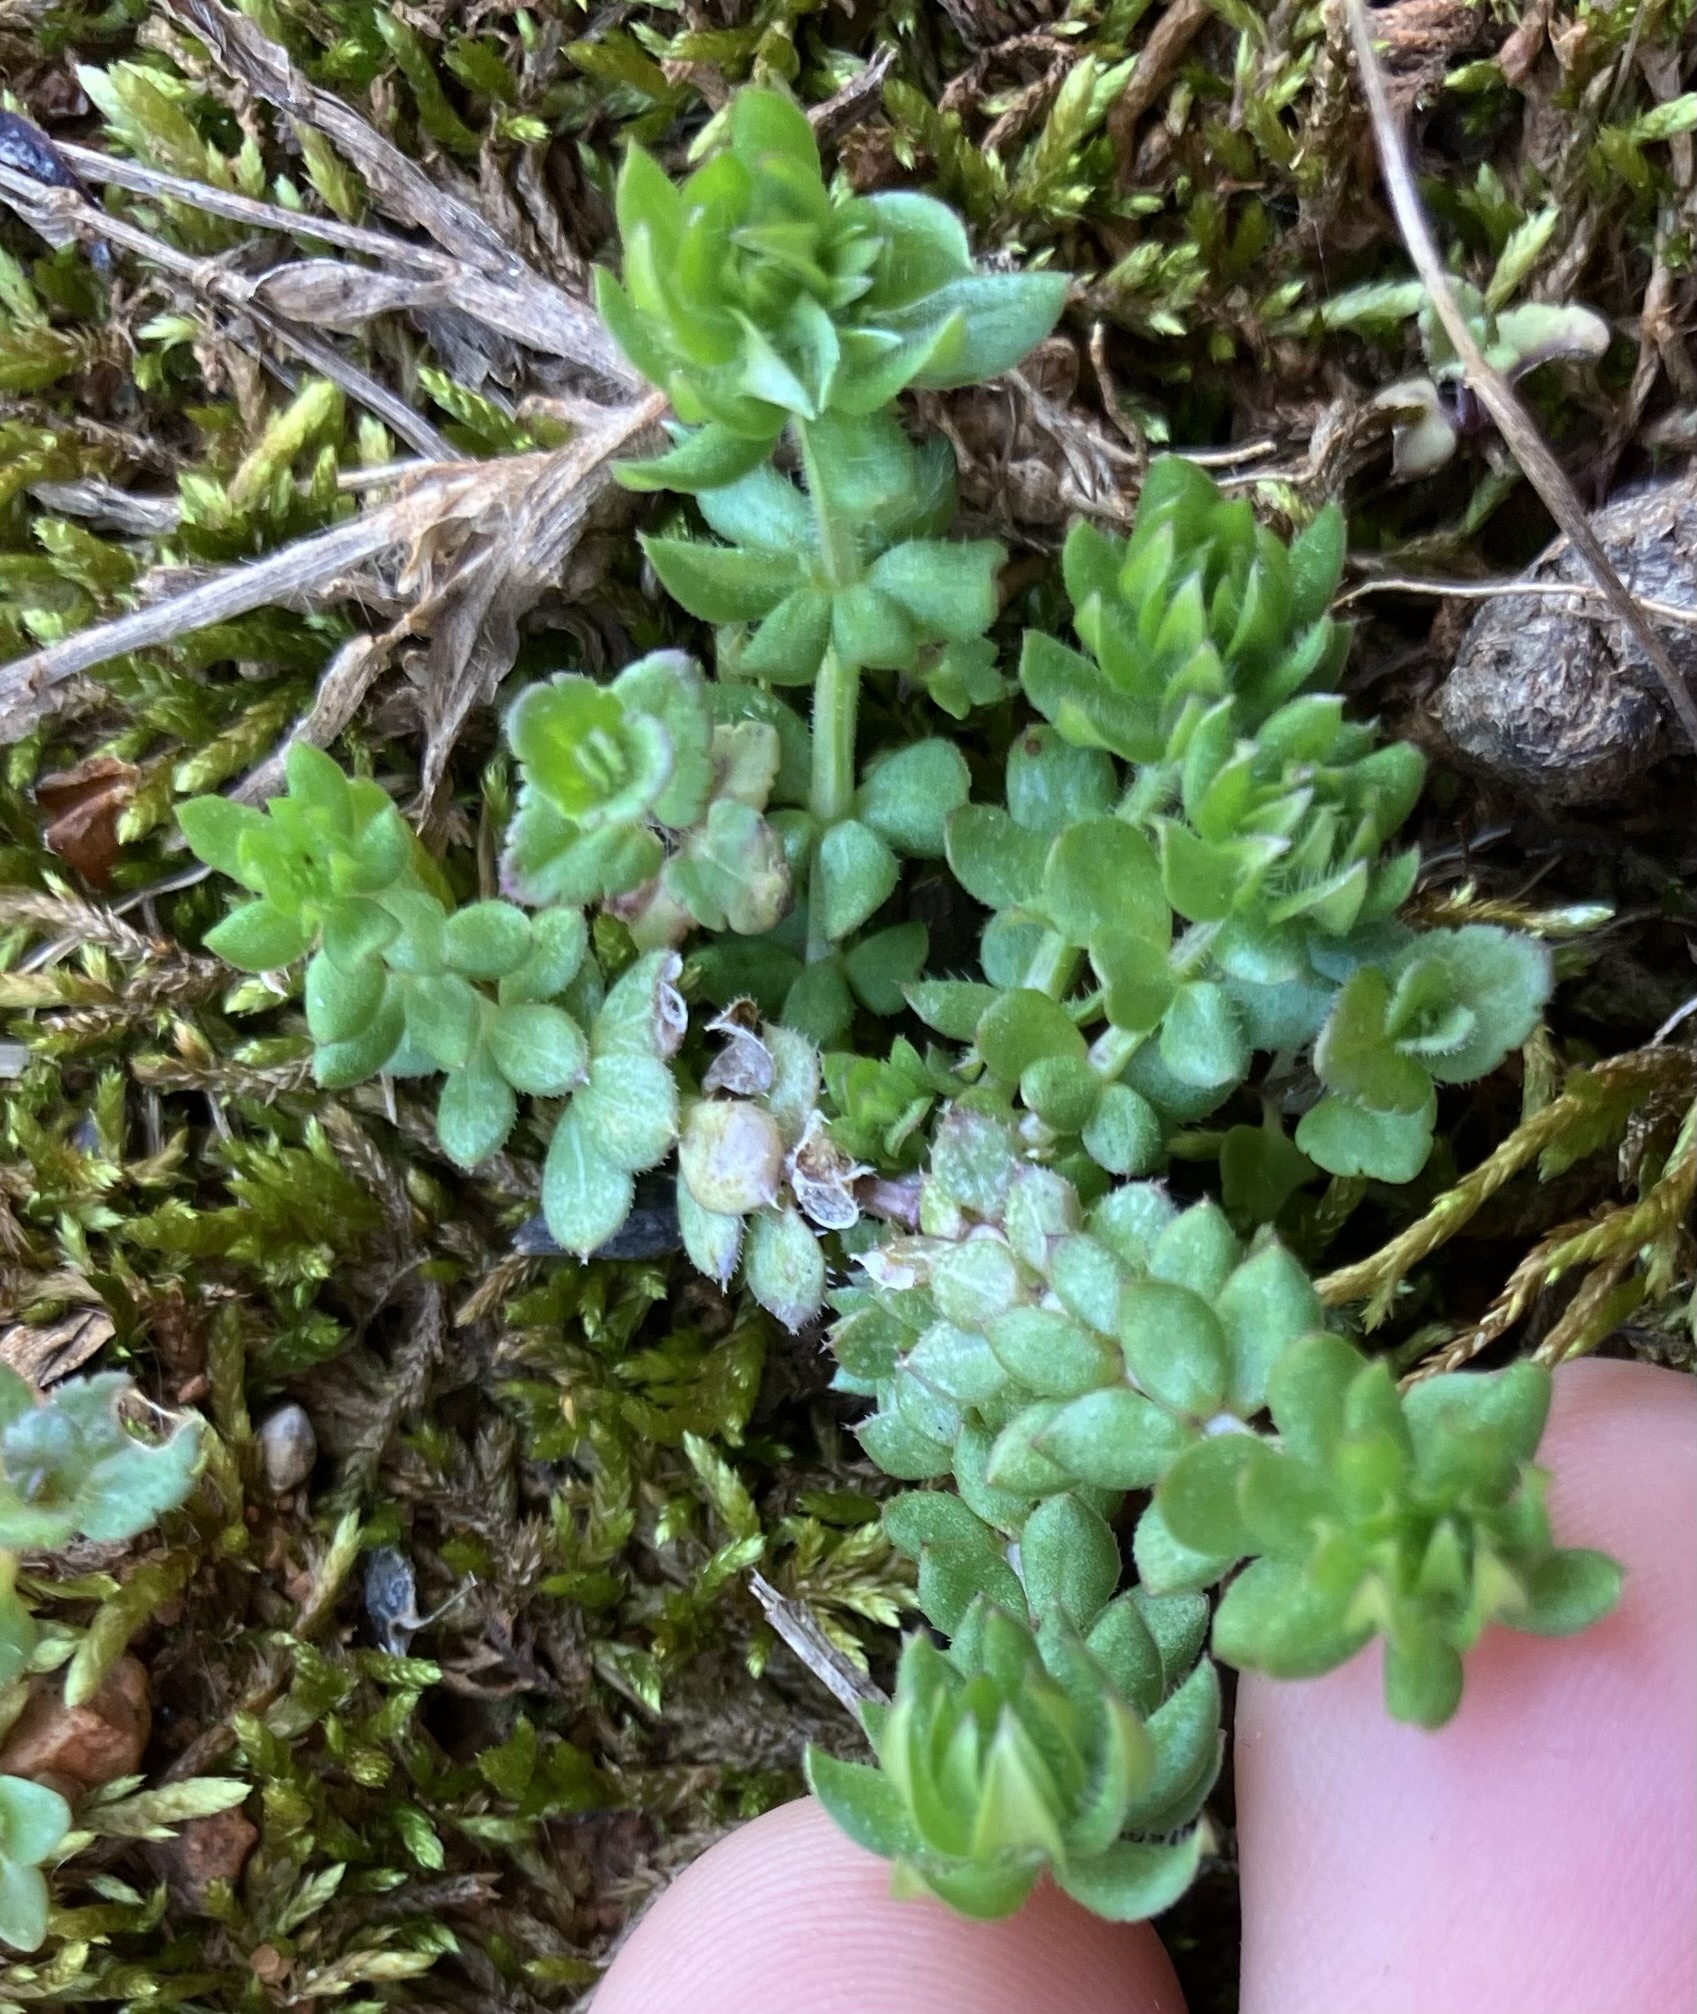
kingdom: Plantae
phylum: Tracheophyta
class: Magnoliopsida
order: Gentianales
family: Rubiaceae
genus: Sherardia
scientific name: Sherardia arvensis
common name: Field madder
